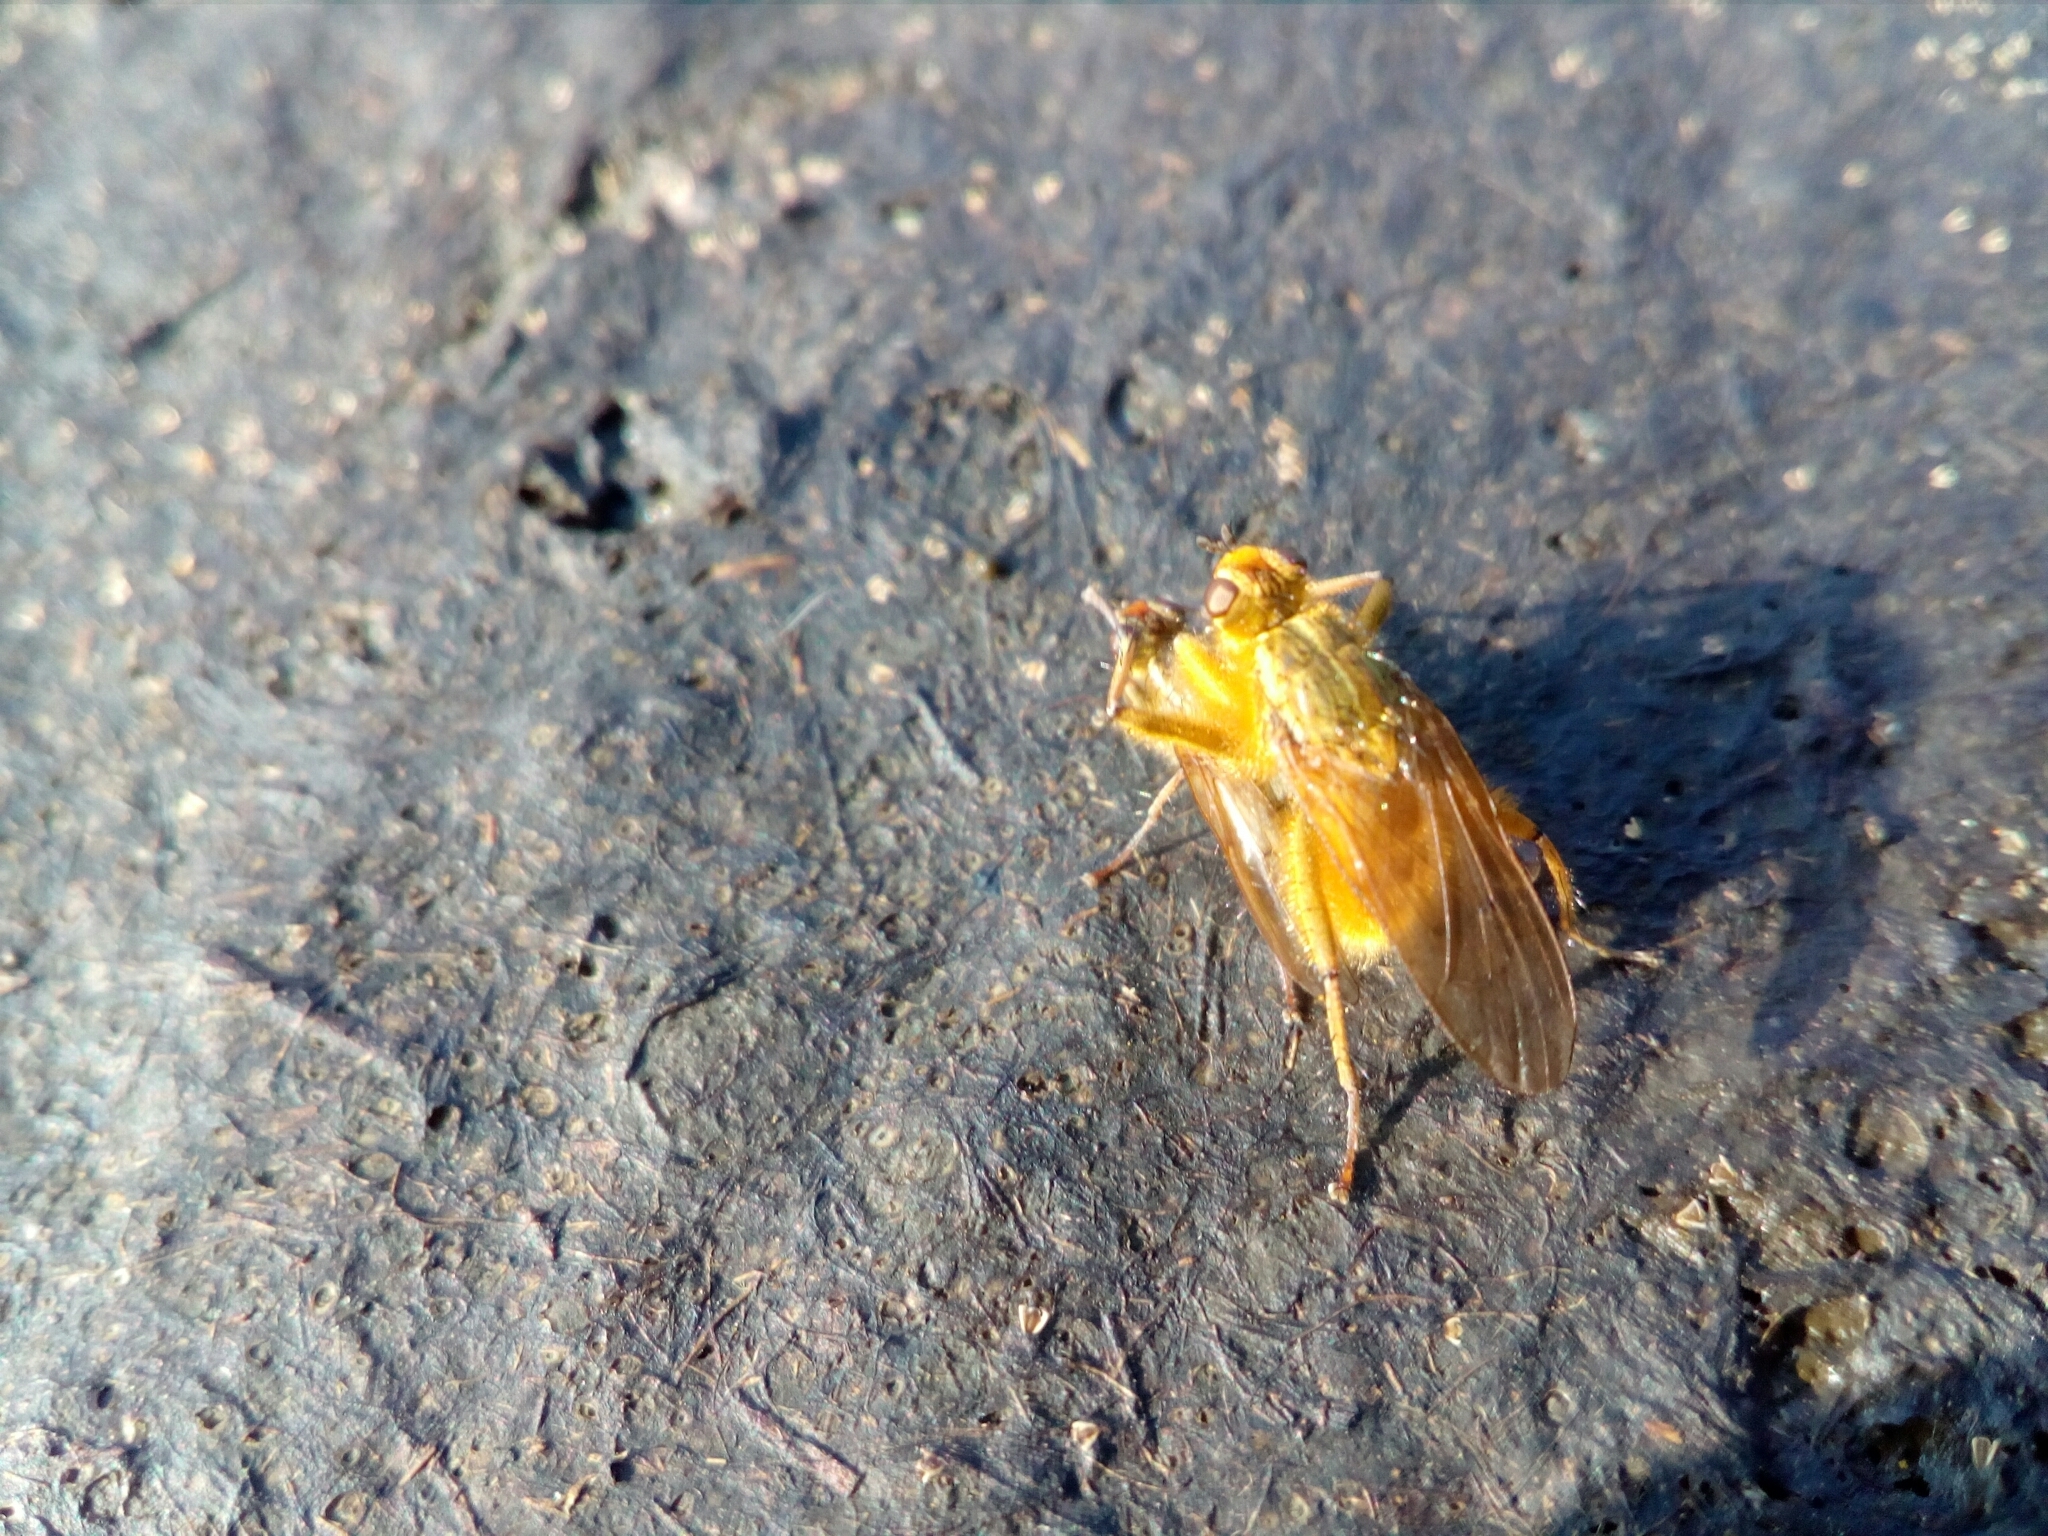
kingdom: Animalia
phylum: Arthropoda
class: Insecta
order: Diptera
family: Scathophagidae
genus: Scathophaga
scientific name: Scathophaga stercoraria
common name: Yellow dung fly
